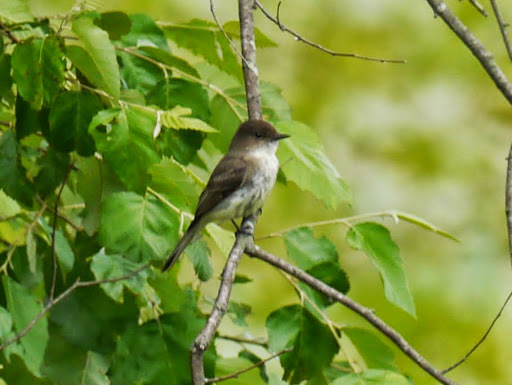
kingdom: Animalia
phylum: Chordata
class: Aves
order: Passeriformes
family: Tyrannidae
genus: Sayornis
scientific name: Sayornis phoebe
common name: Eastern phoebe
